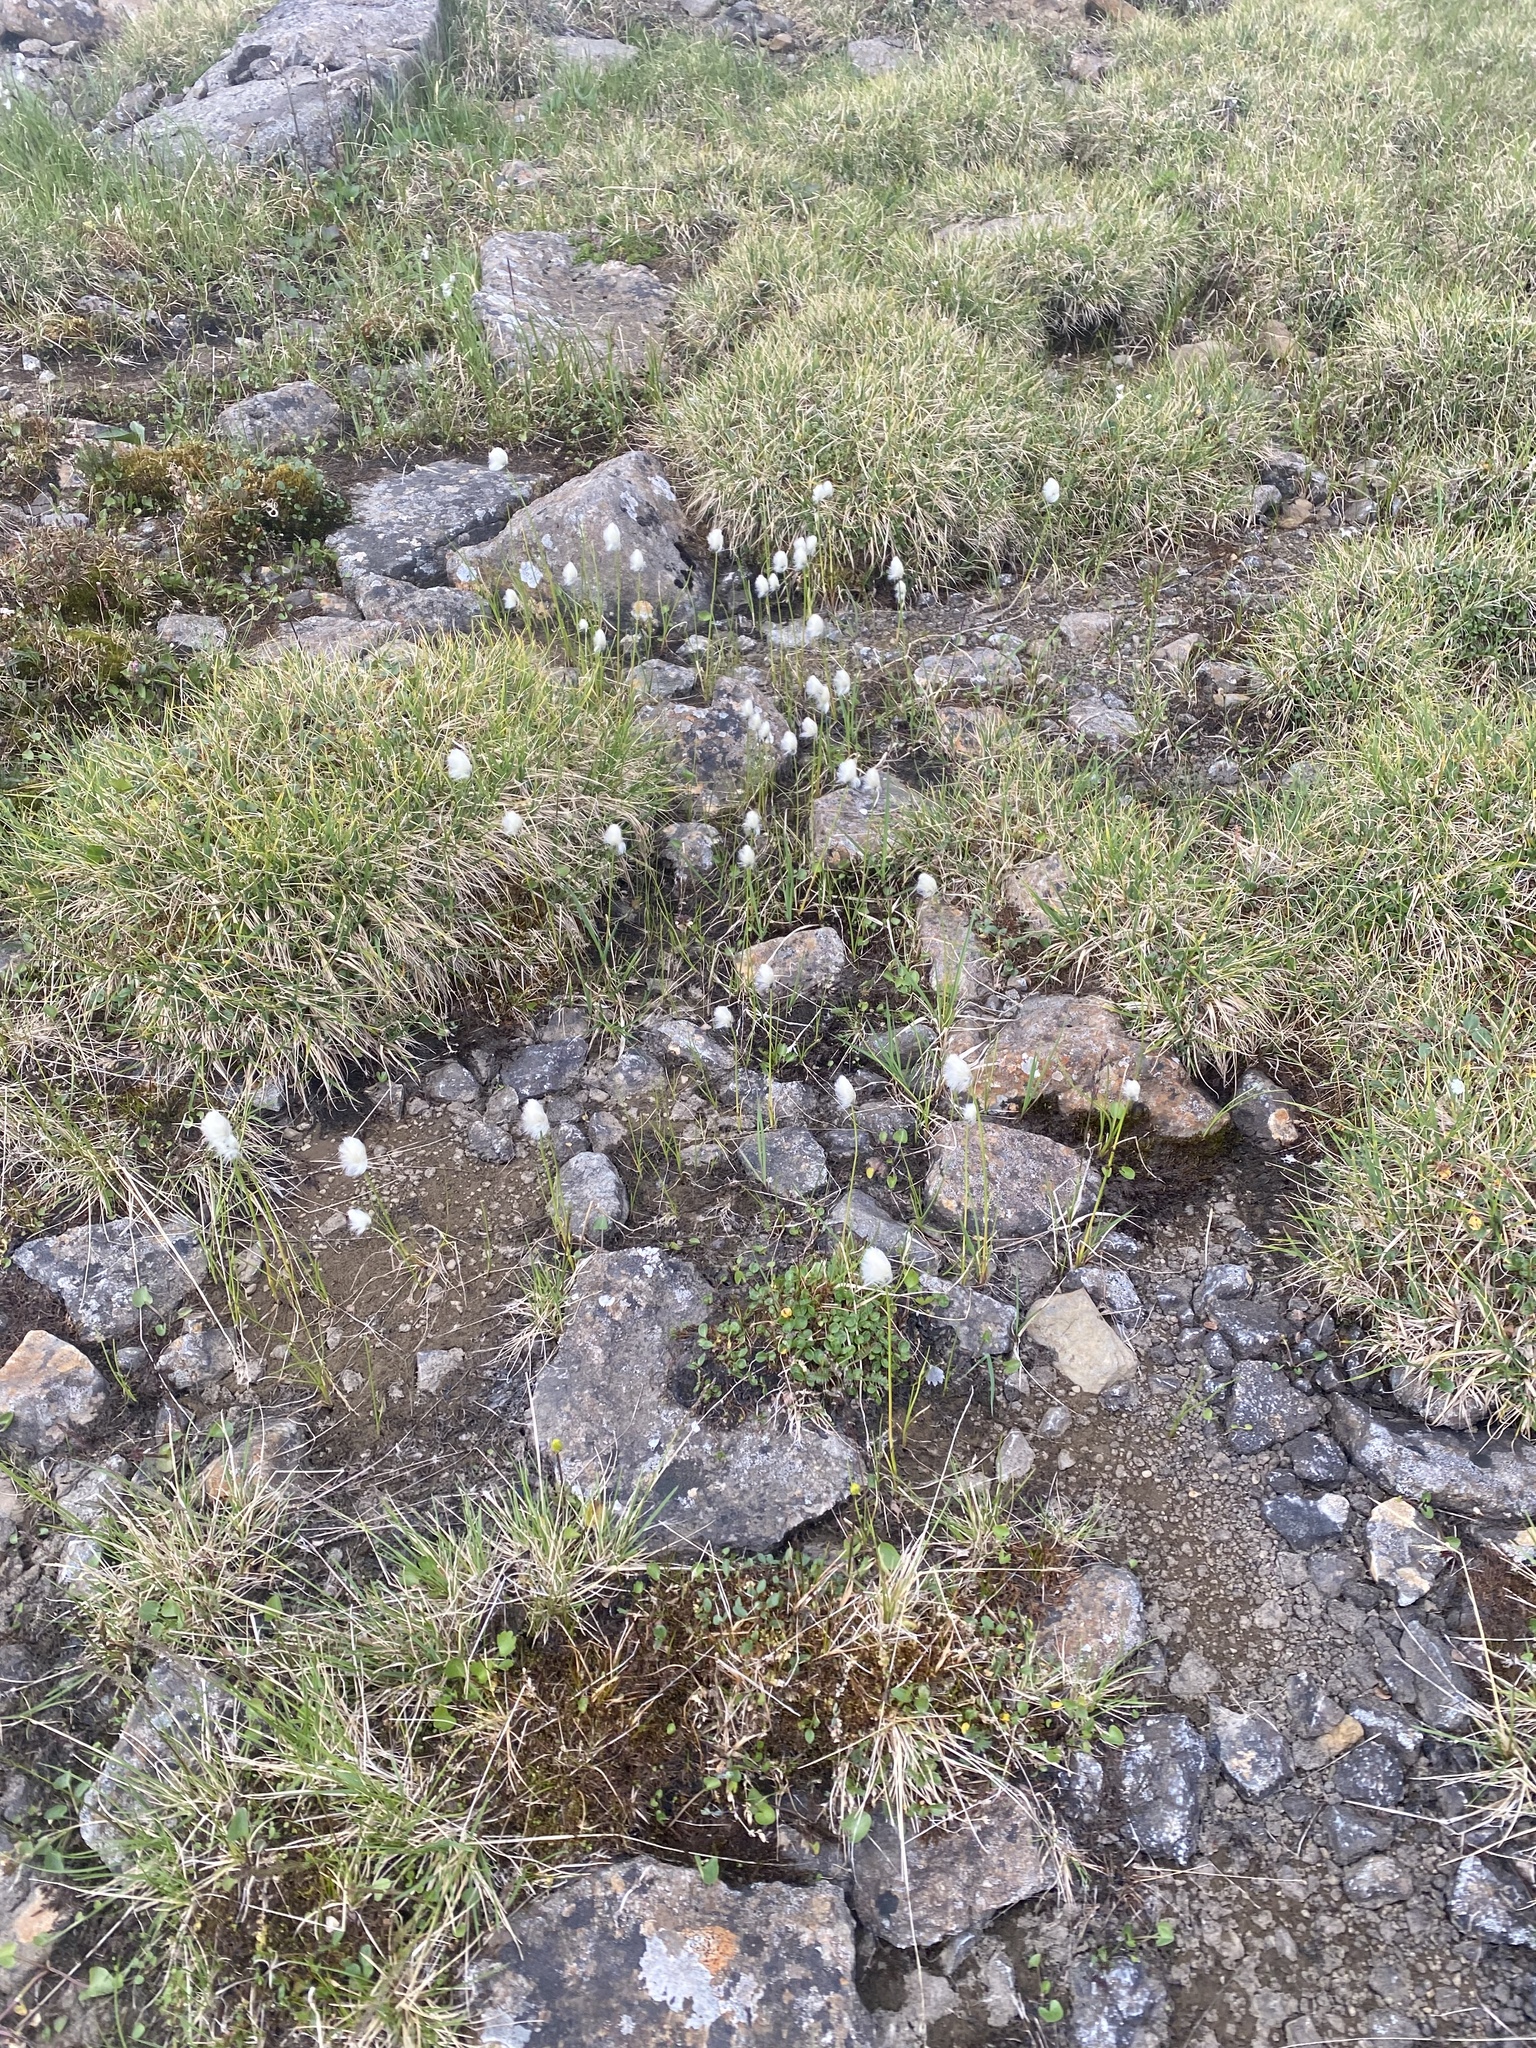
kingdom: Plantae
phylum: Tracheophyta
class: Liliopsida
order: Poales
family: Cyperaceae
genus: Eriophorum
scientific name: Eriophorum brachyantherum
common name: Closed-sheathed cottongrass
